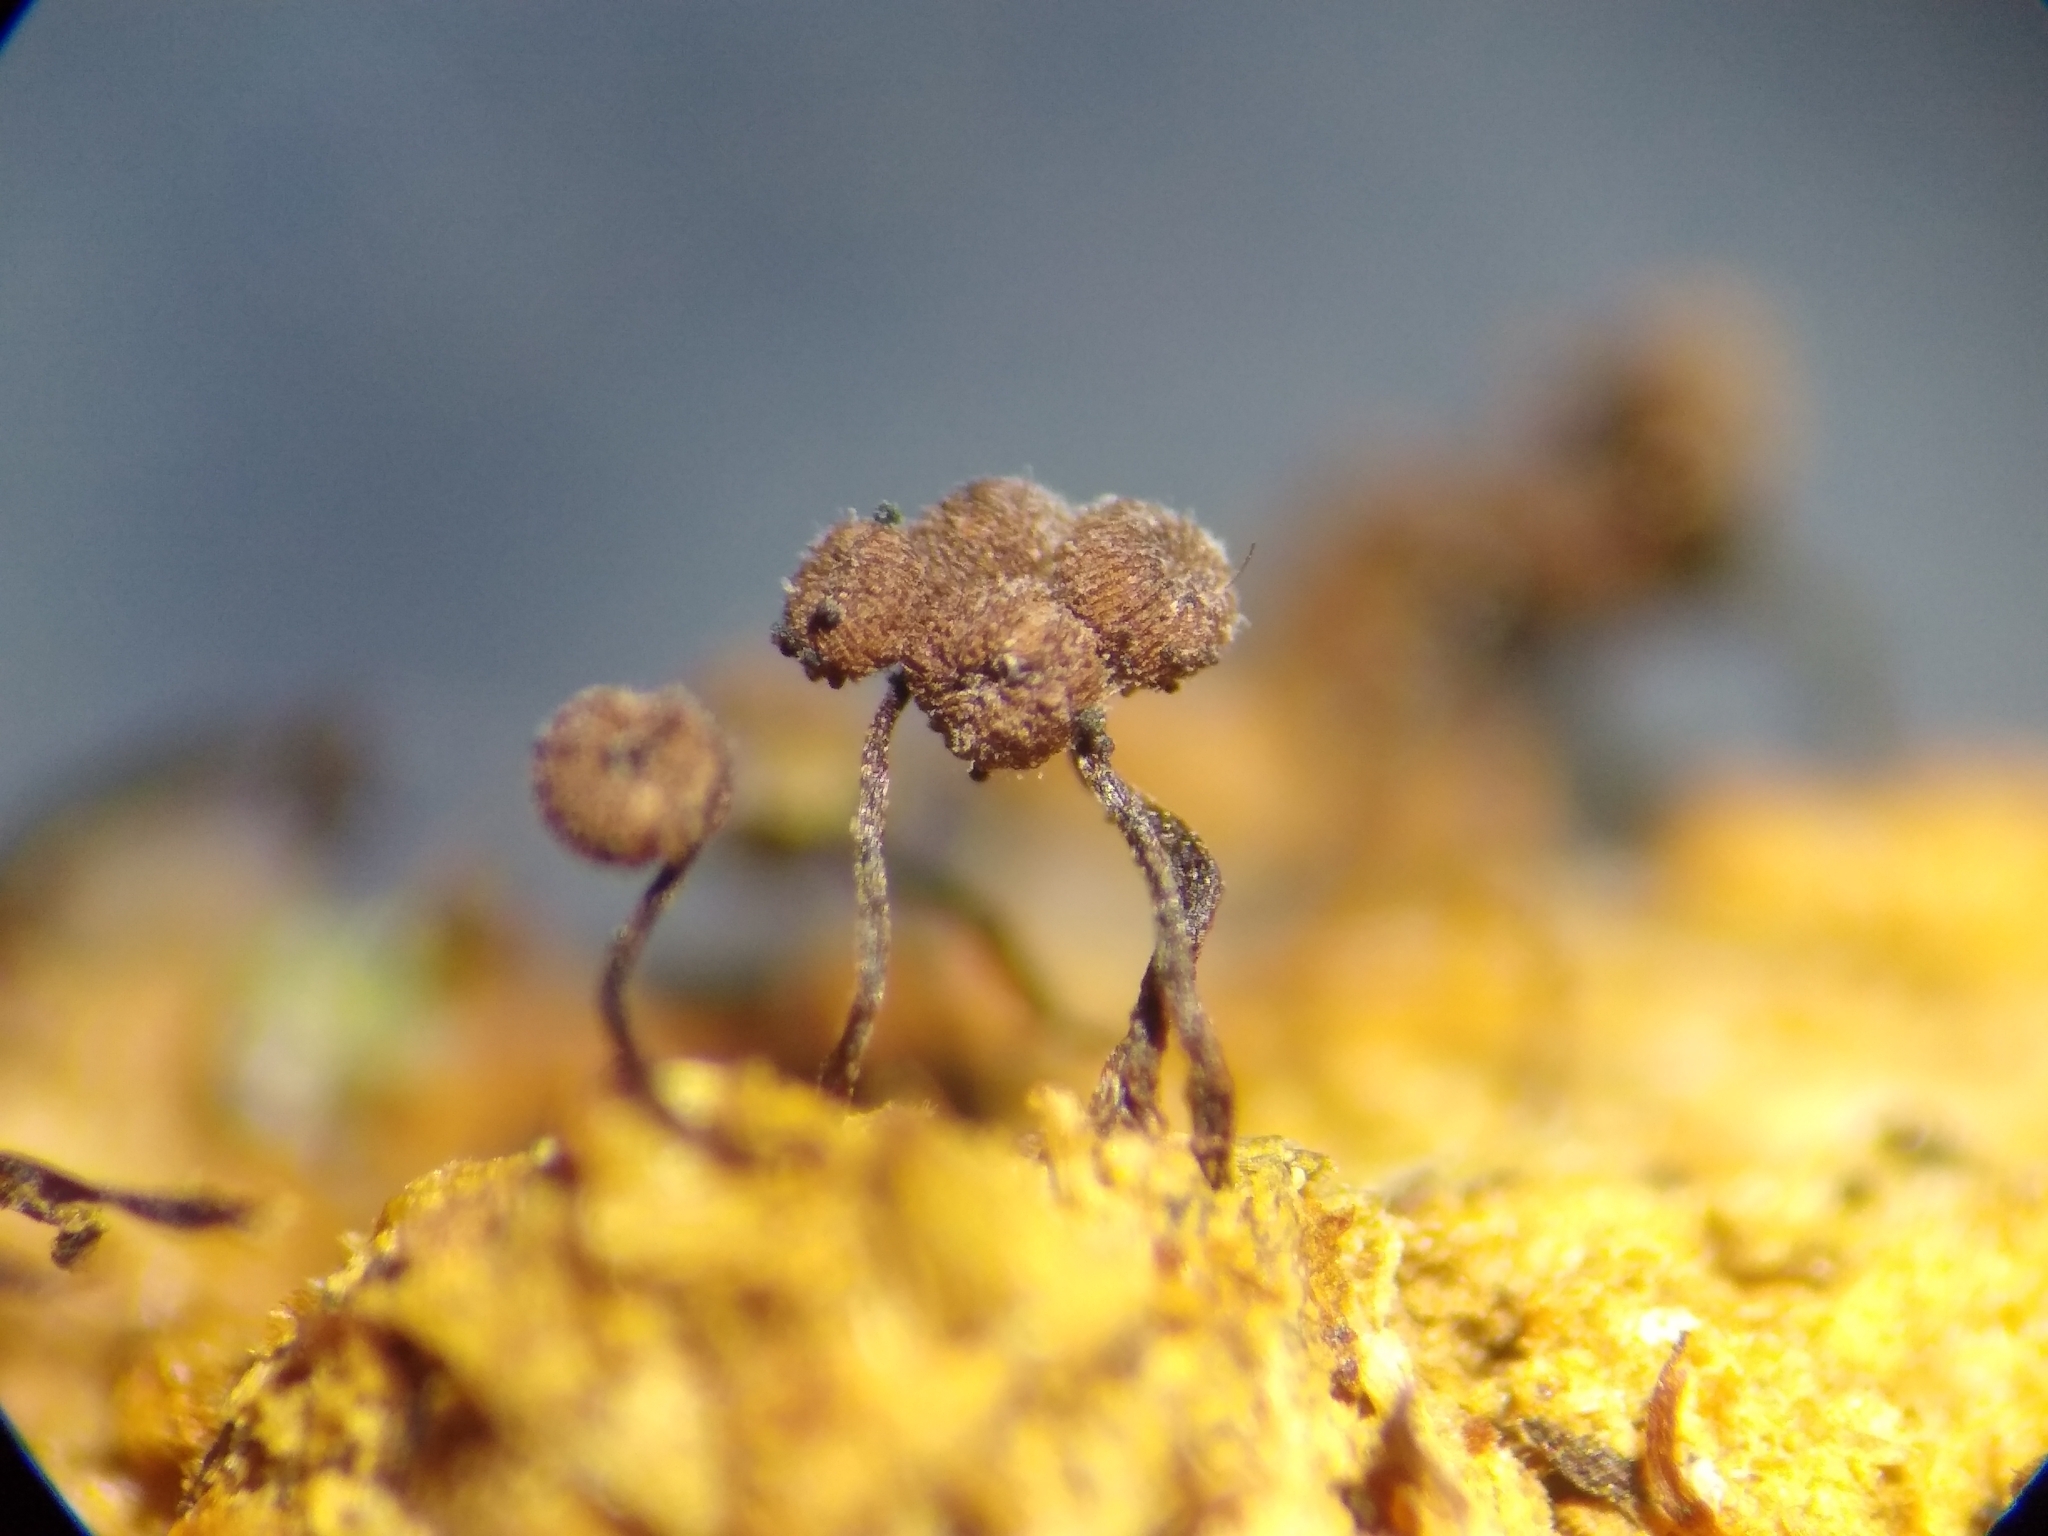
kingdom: Protozoa
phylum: Mycetozoa
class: Myxomycetes
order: Cribrariales
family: Cribrariaceae
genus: Cribraria
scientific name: Cribraria cancellata
